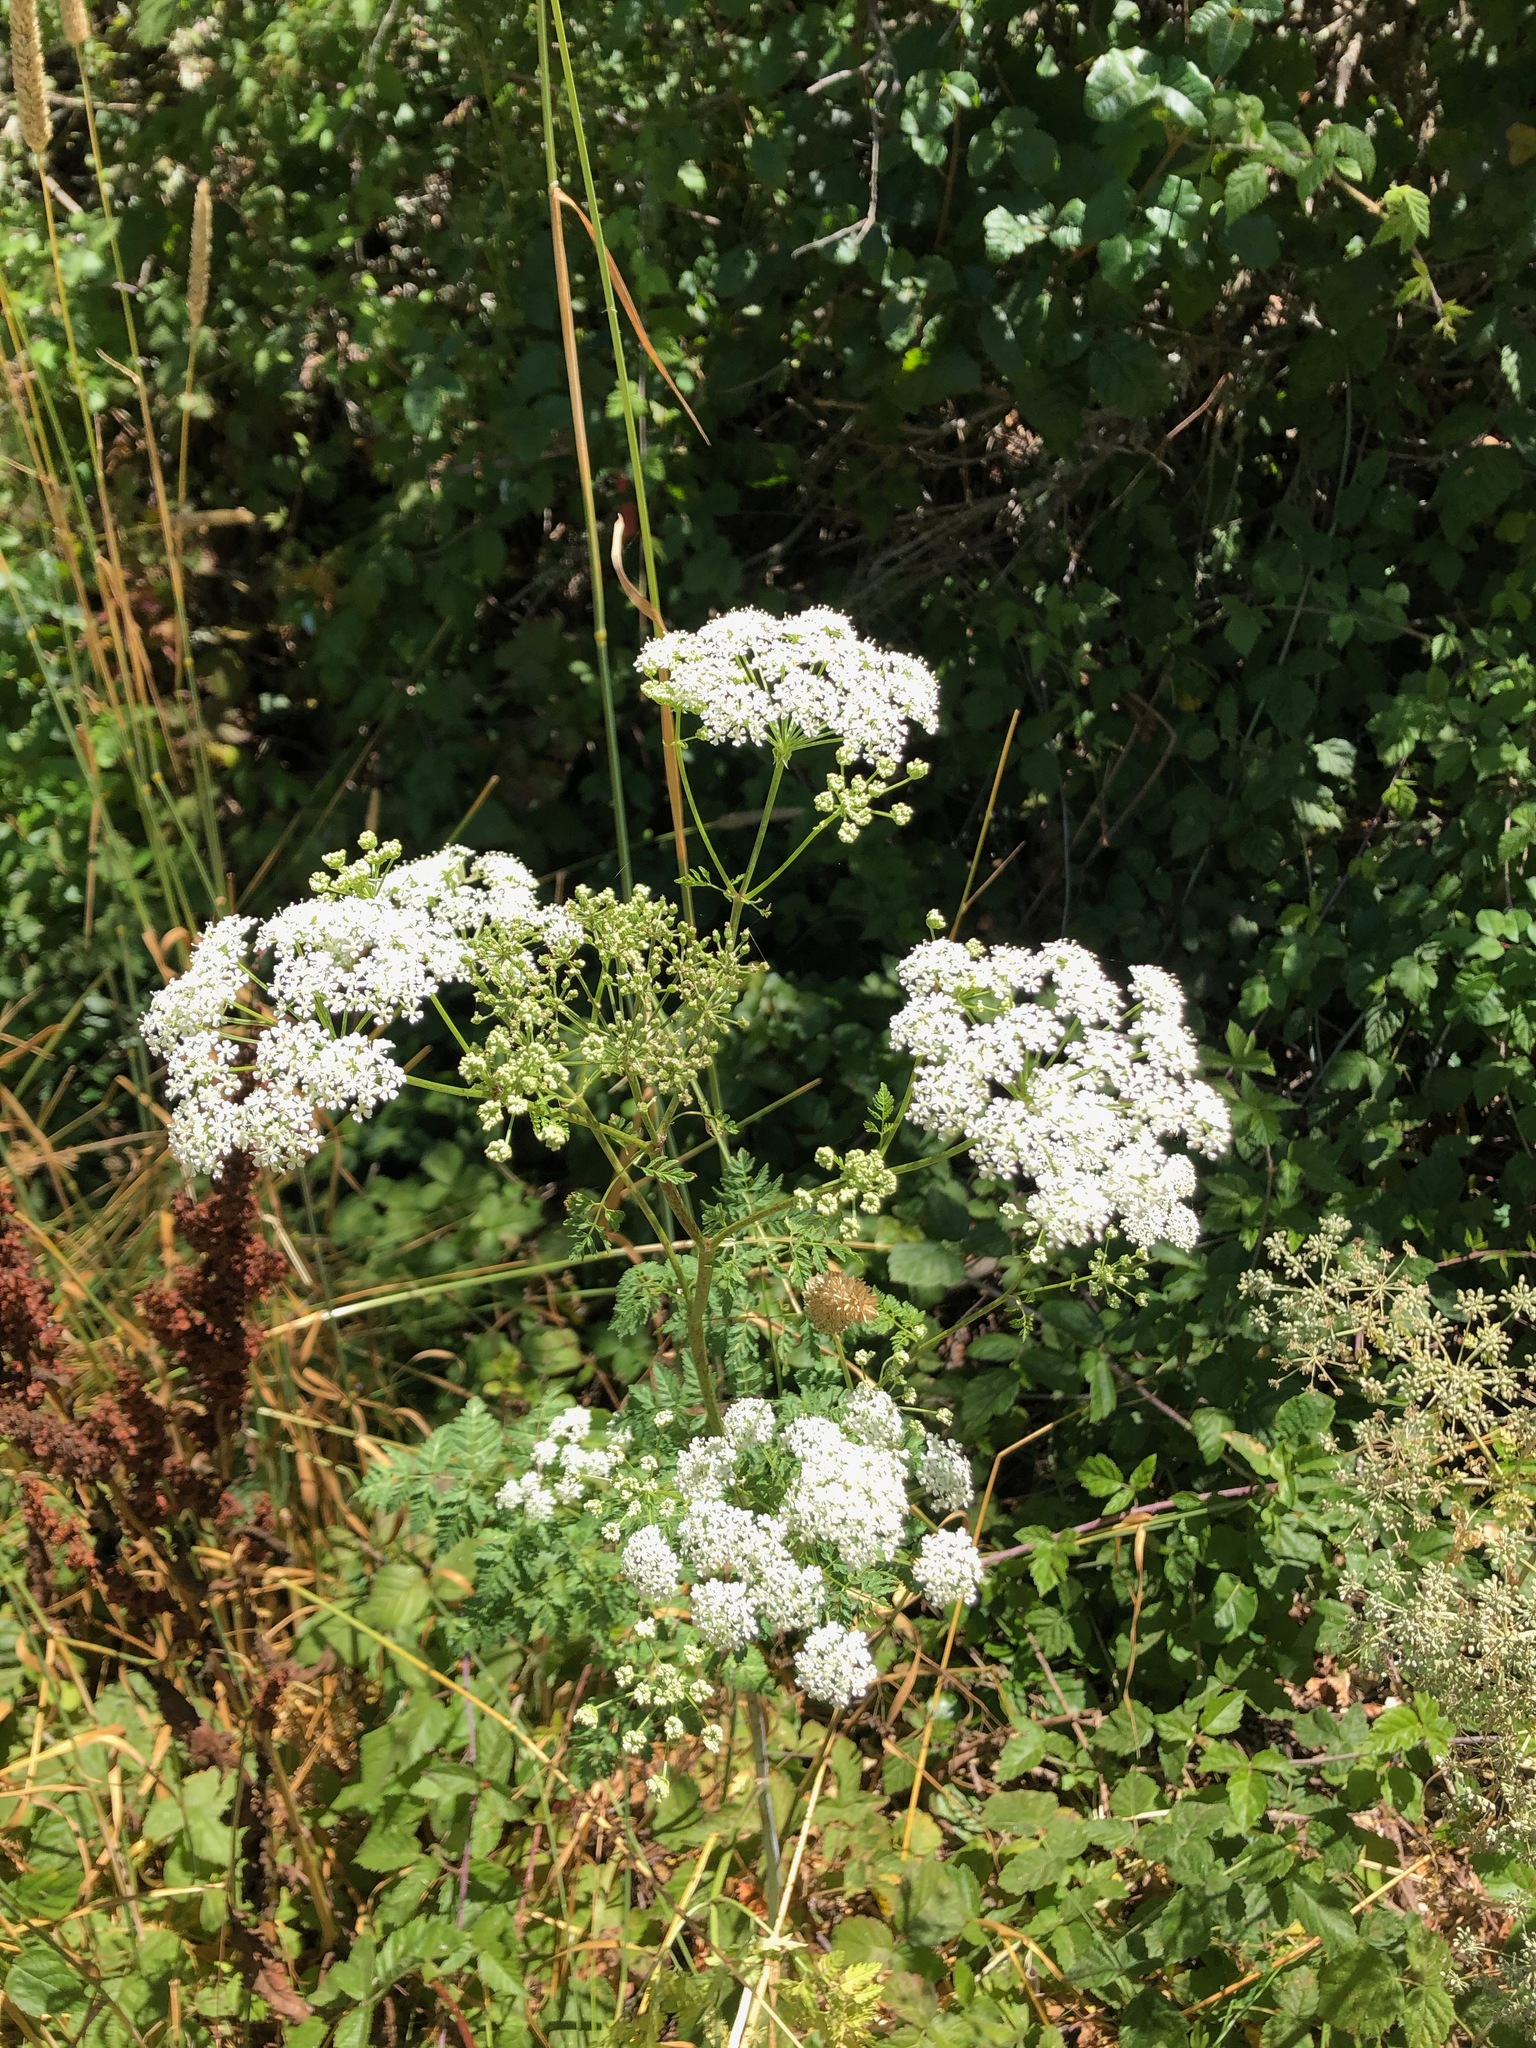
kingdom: Plantae
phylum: Tracheophyta
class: Magnoliopsida
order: Apiales
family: Apiaceae
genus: Conium
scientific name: Conium maculatum
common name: Hemlock
